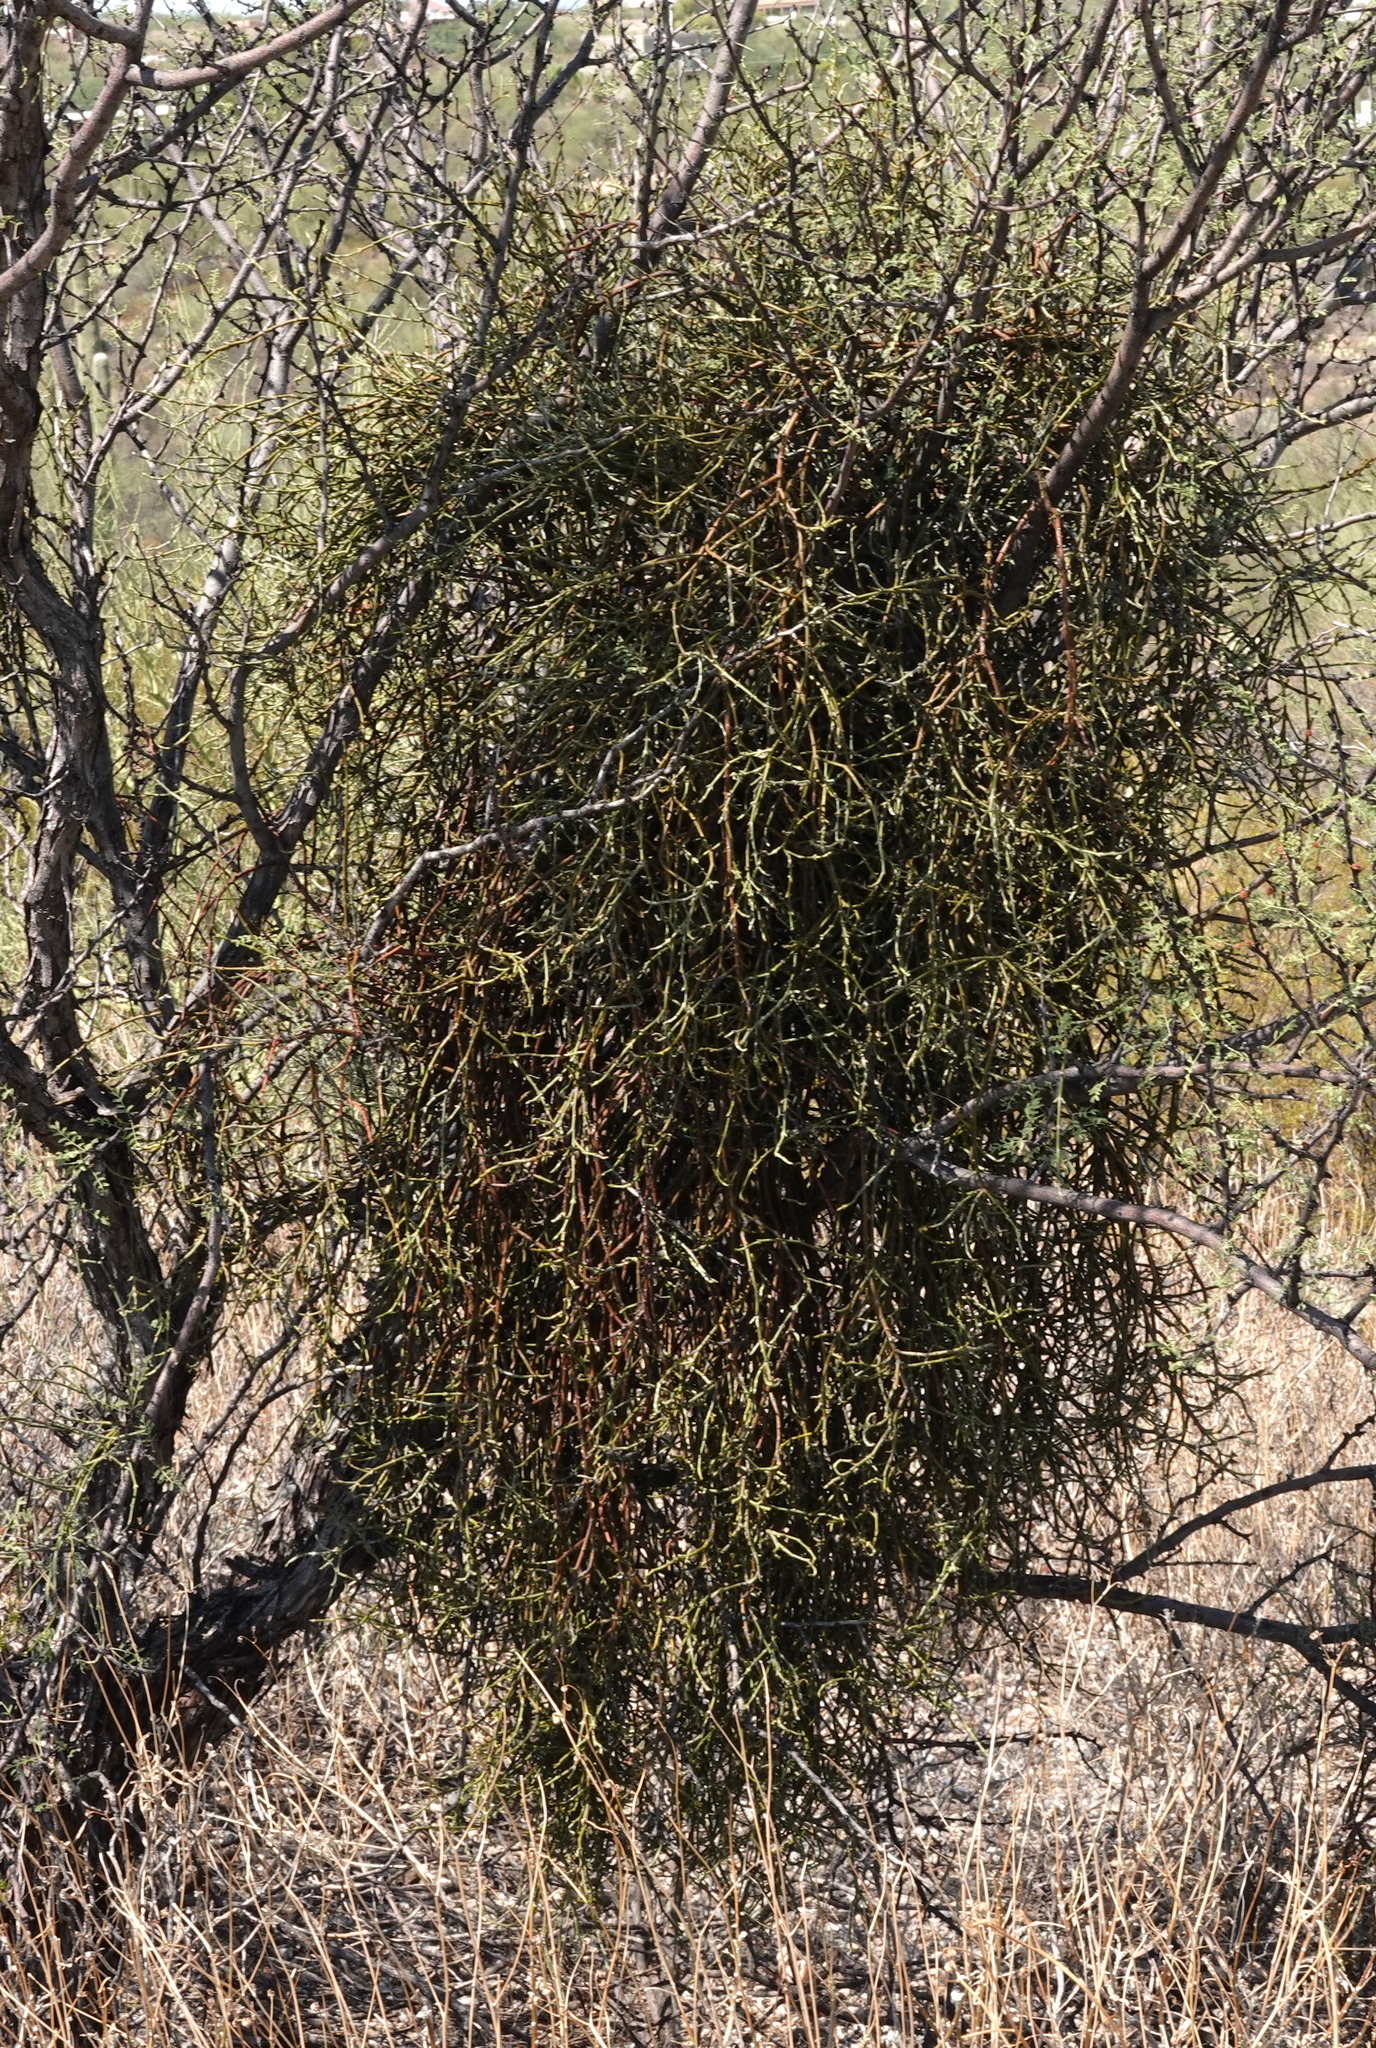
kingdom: Plantae
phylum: Tracheophyta
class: Magnoliopsida
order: Santalales
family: Viscaceae
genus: Phoradendron
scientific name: Phoradendron californicum
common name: Acacia mistletoe
